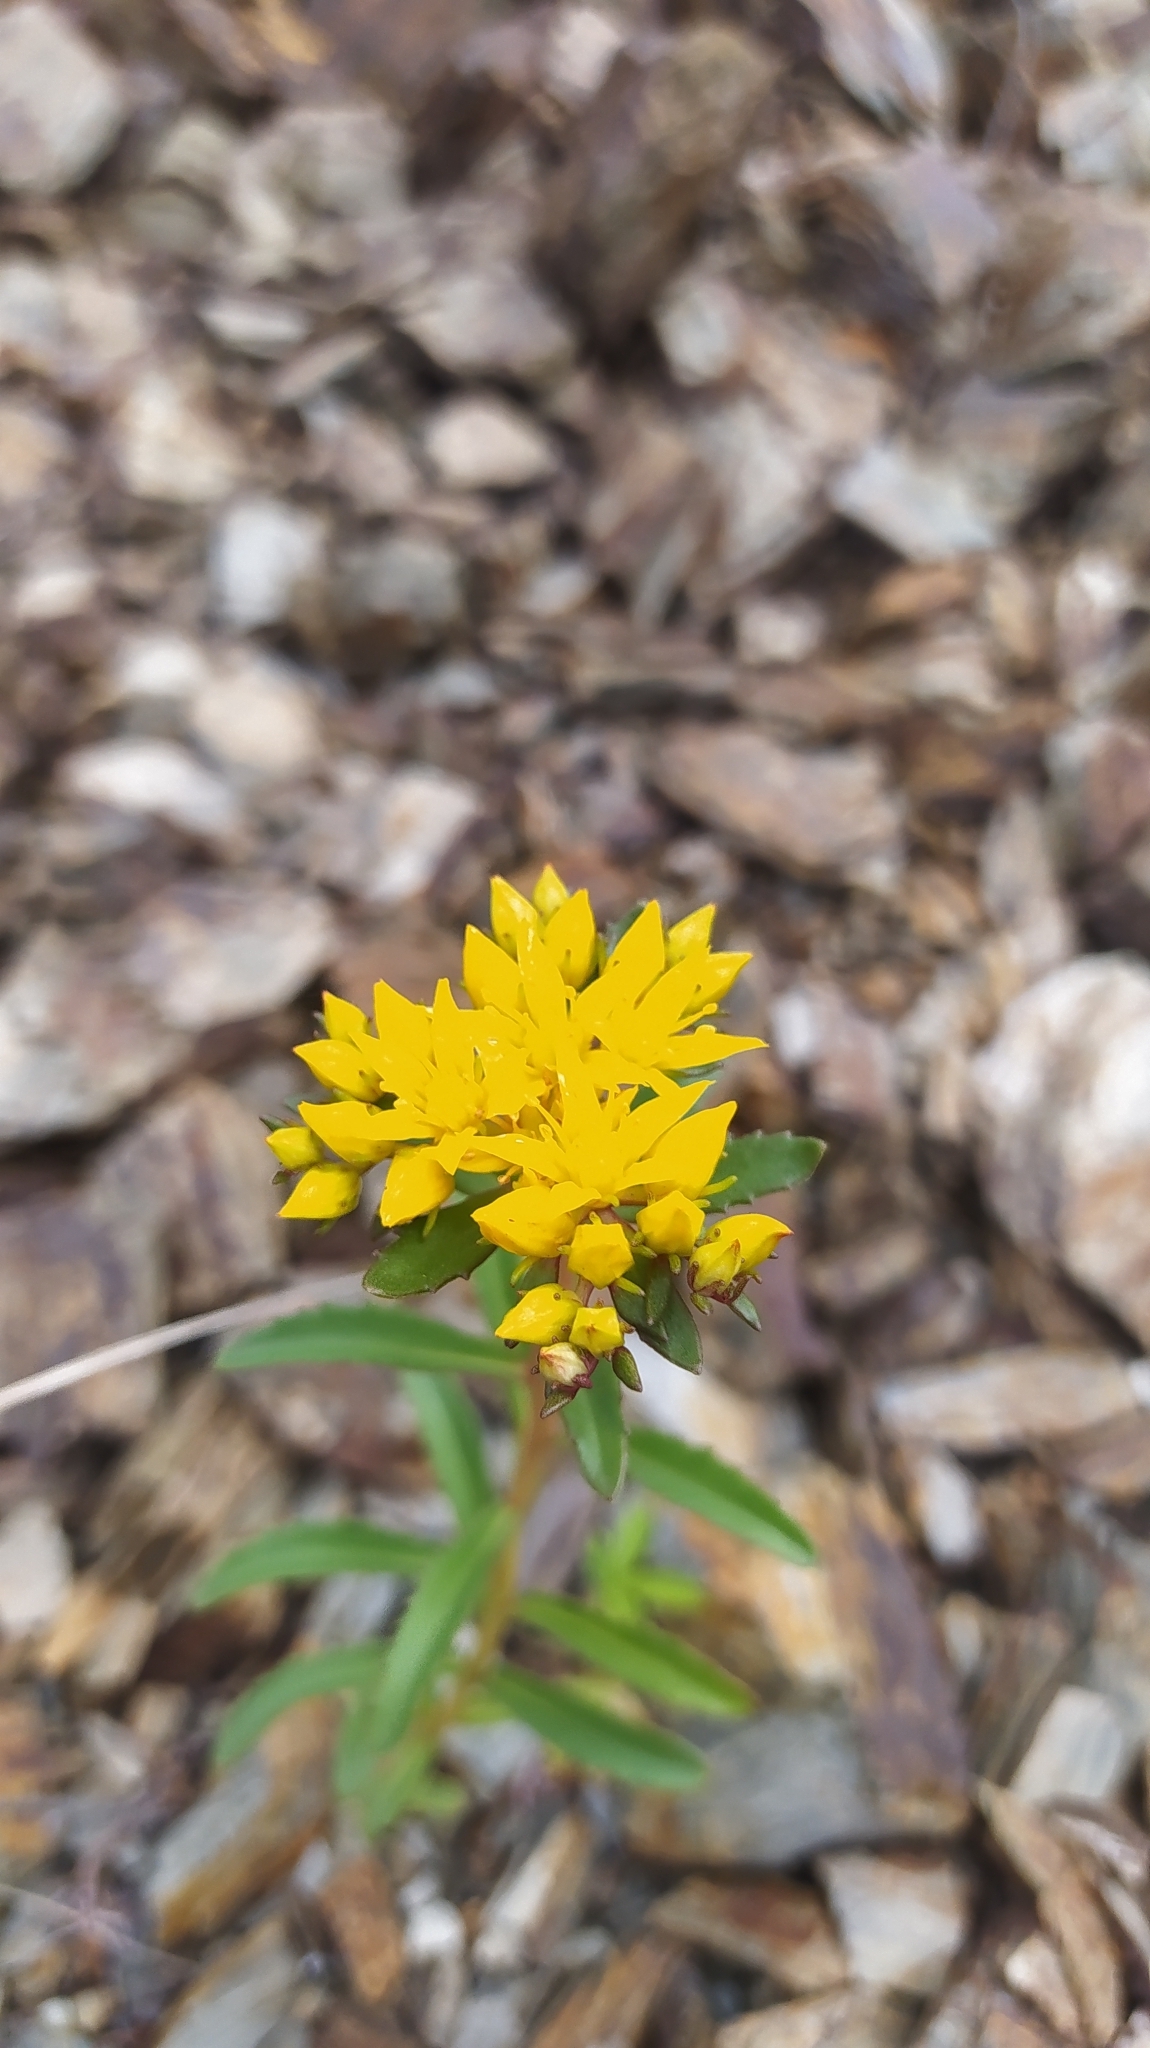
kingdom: Plantae
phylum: Tracheophyta
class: Magnoliopsida
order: Saxifragales
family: Crassulaceae
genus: Phedimus
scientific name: Phedimus aizoon
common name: Orpin aizoon
